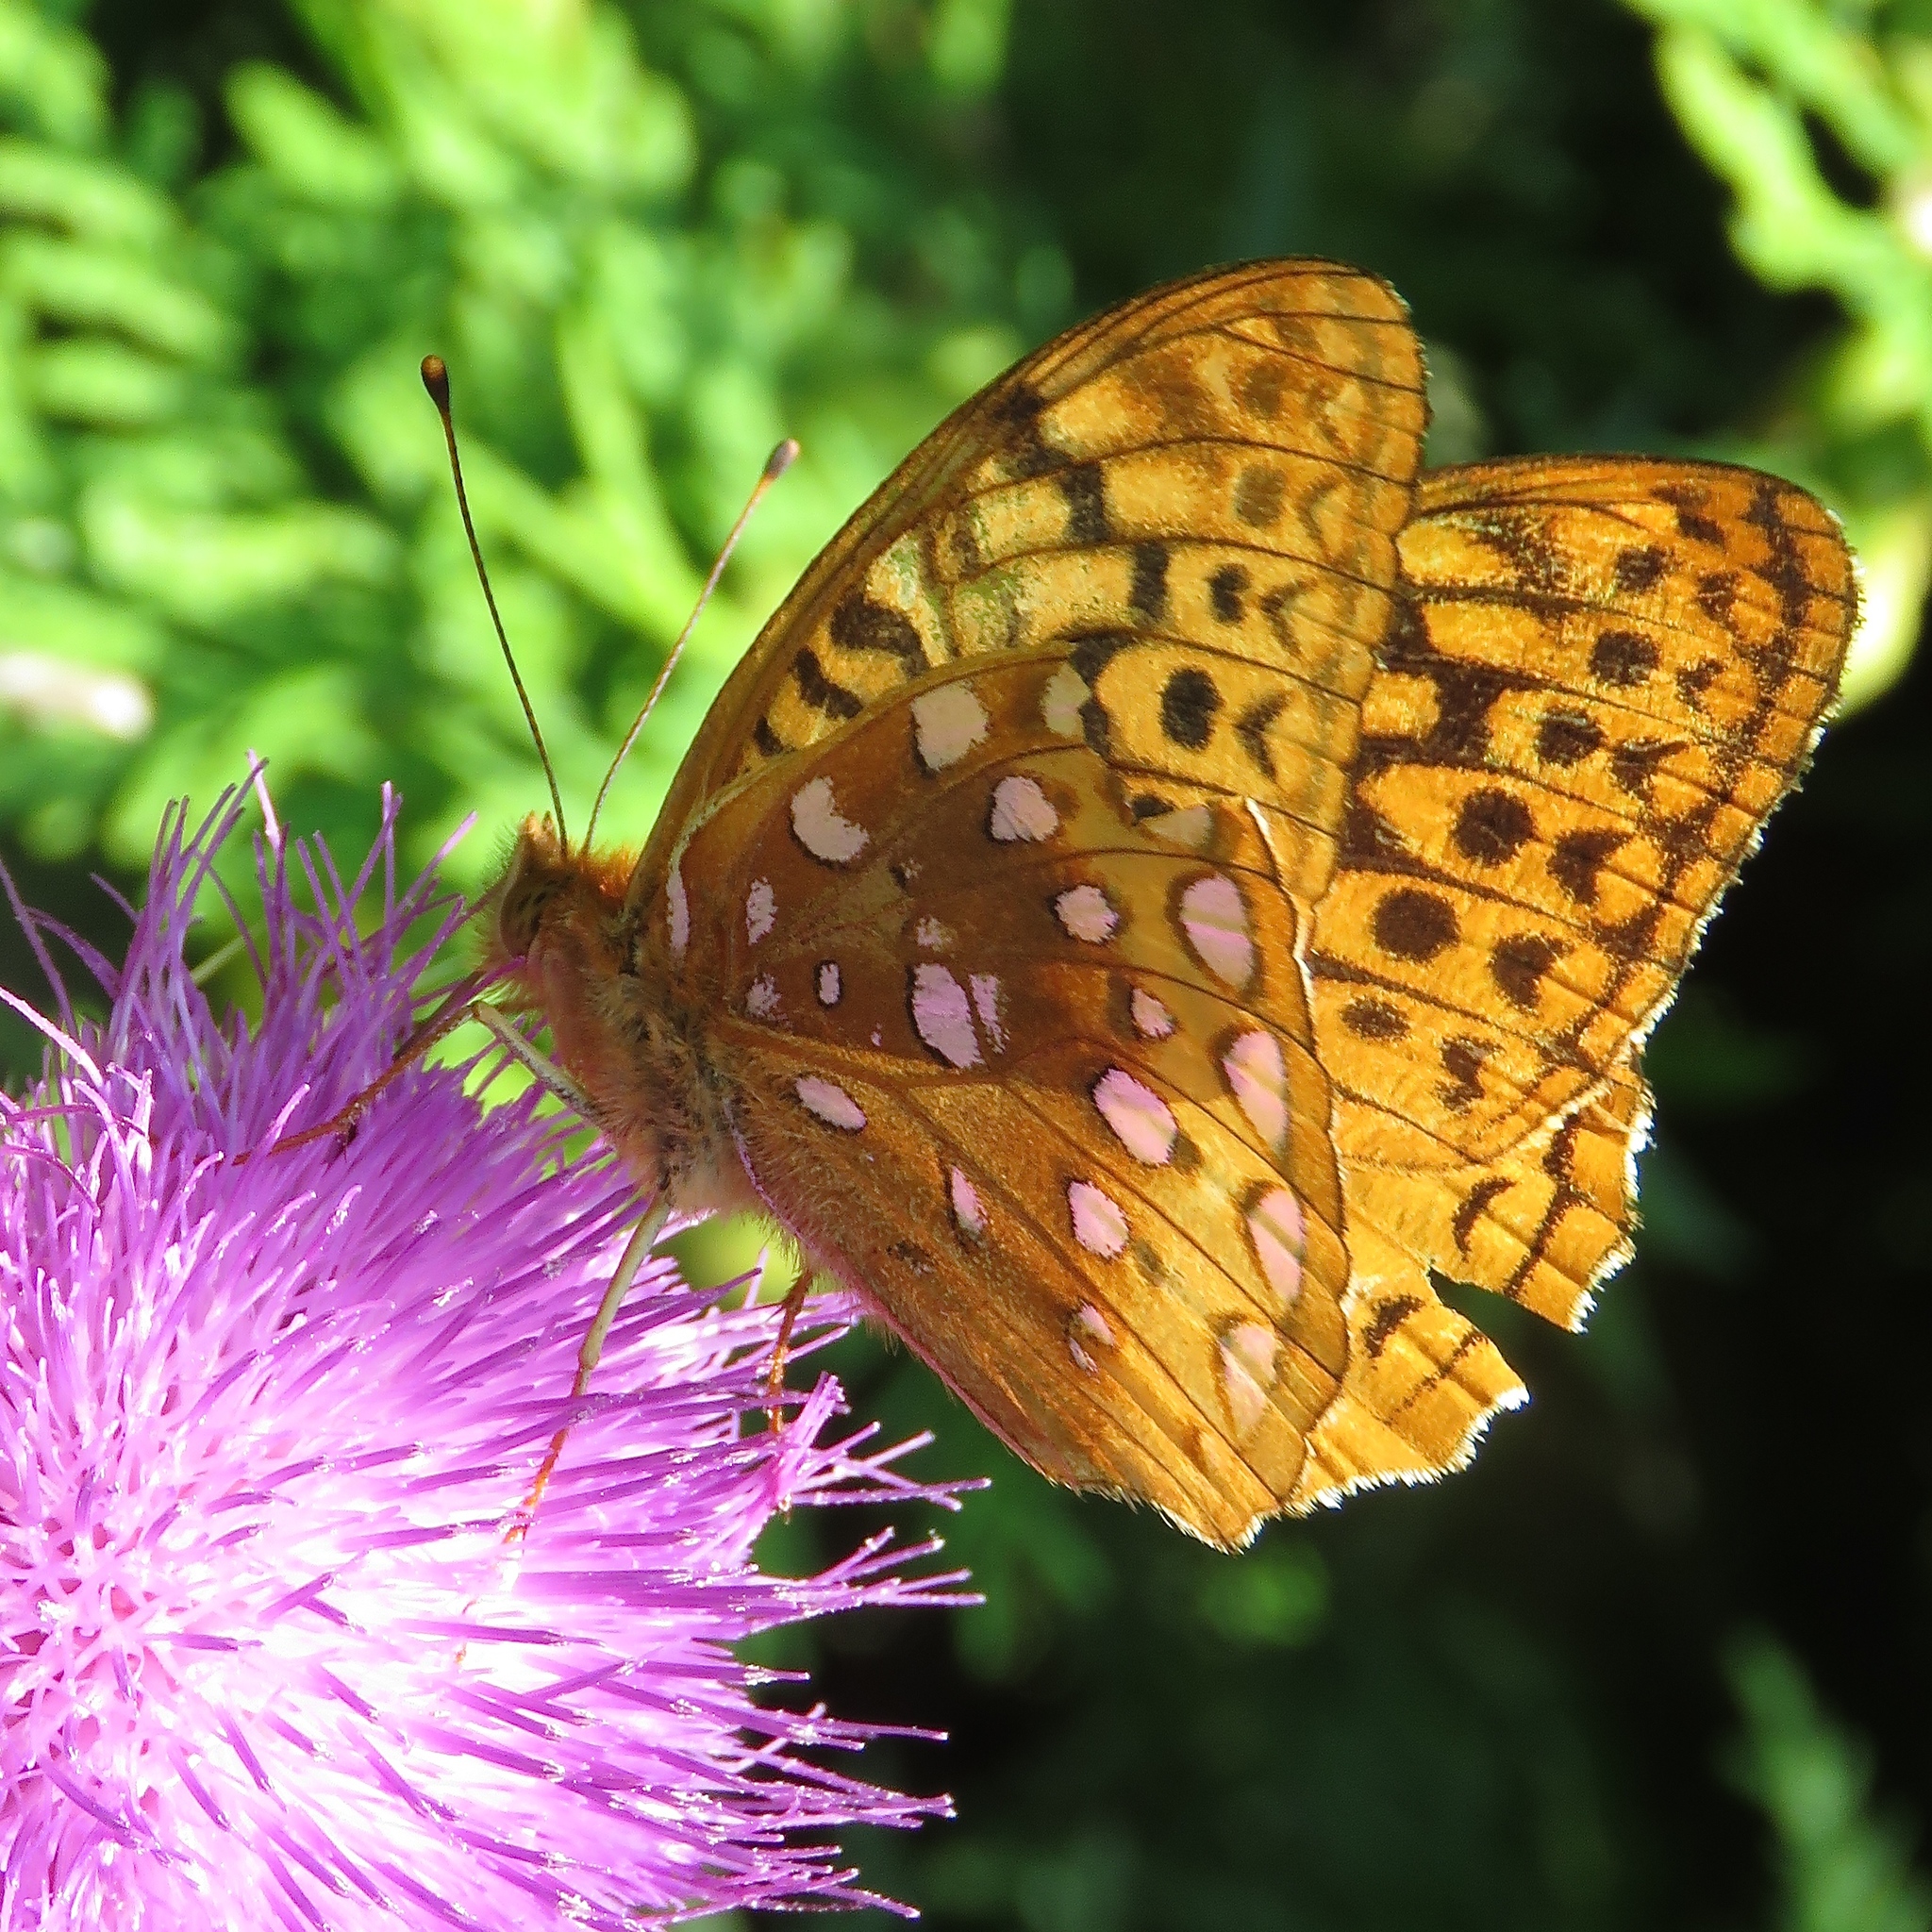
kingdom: Animalia
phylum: Arthropoda
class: Insecta
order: Lepidoptera
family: Nymphalidae
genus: Speyeria
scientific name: Speyeria cybele
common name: Great spangled fritillary
